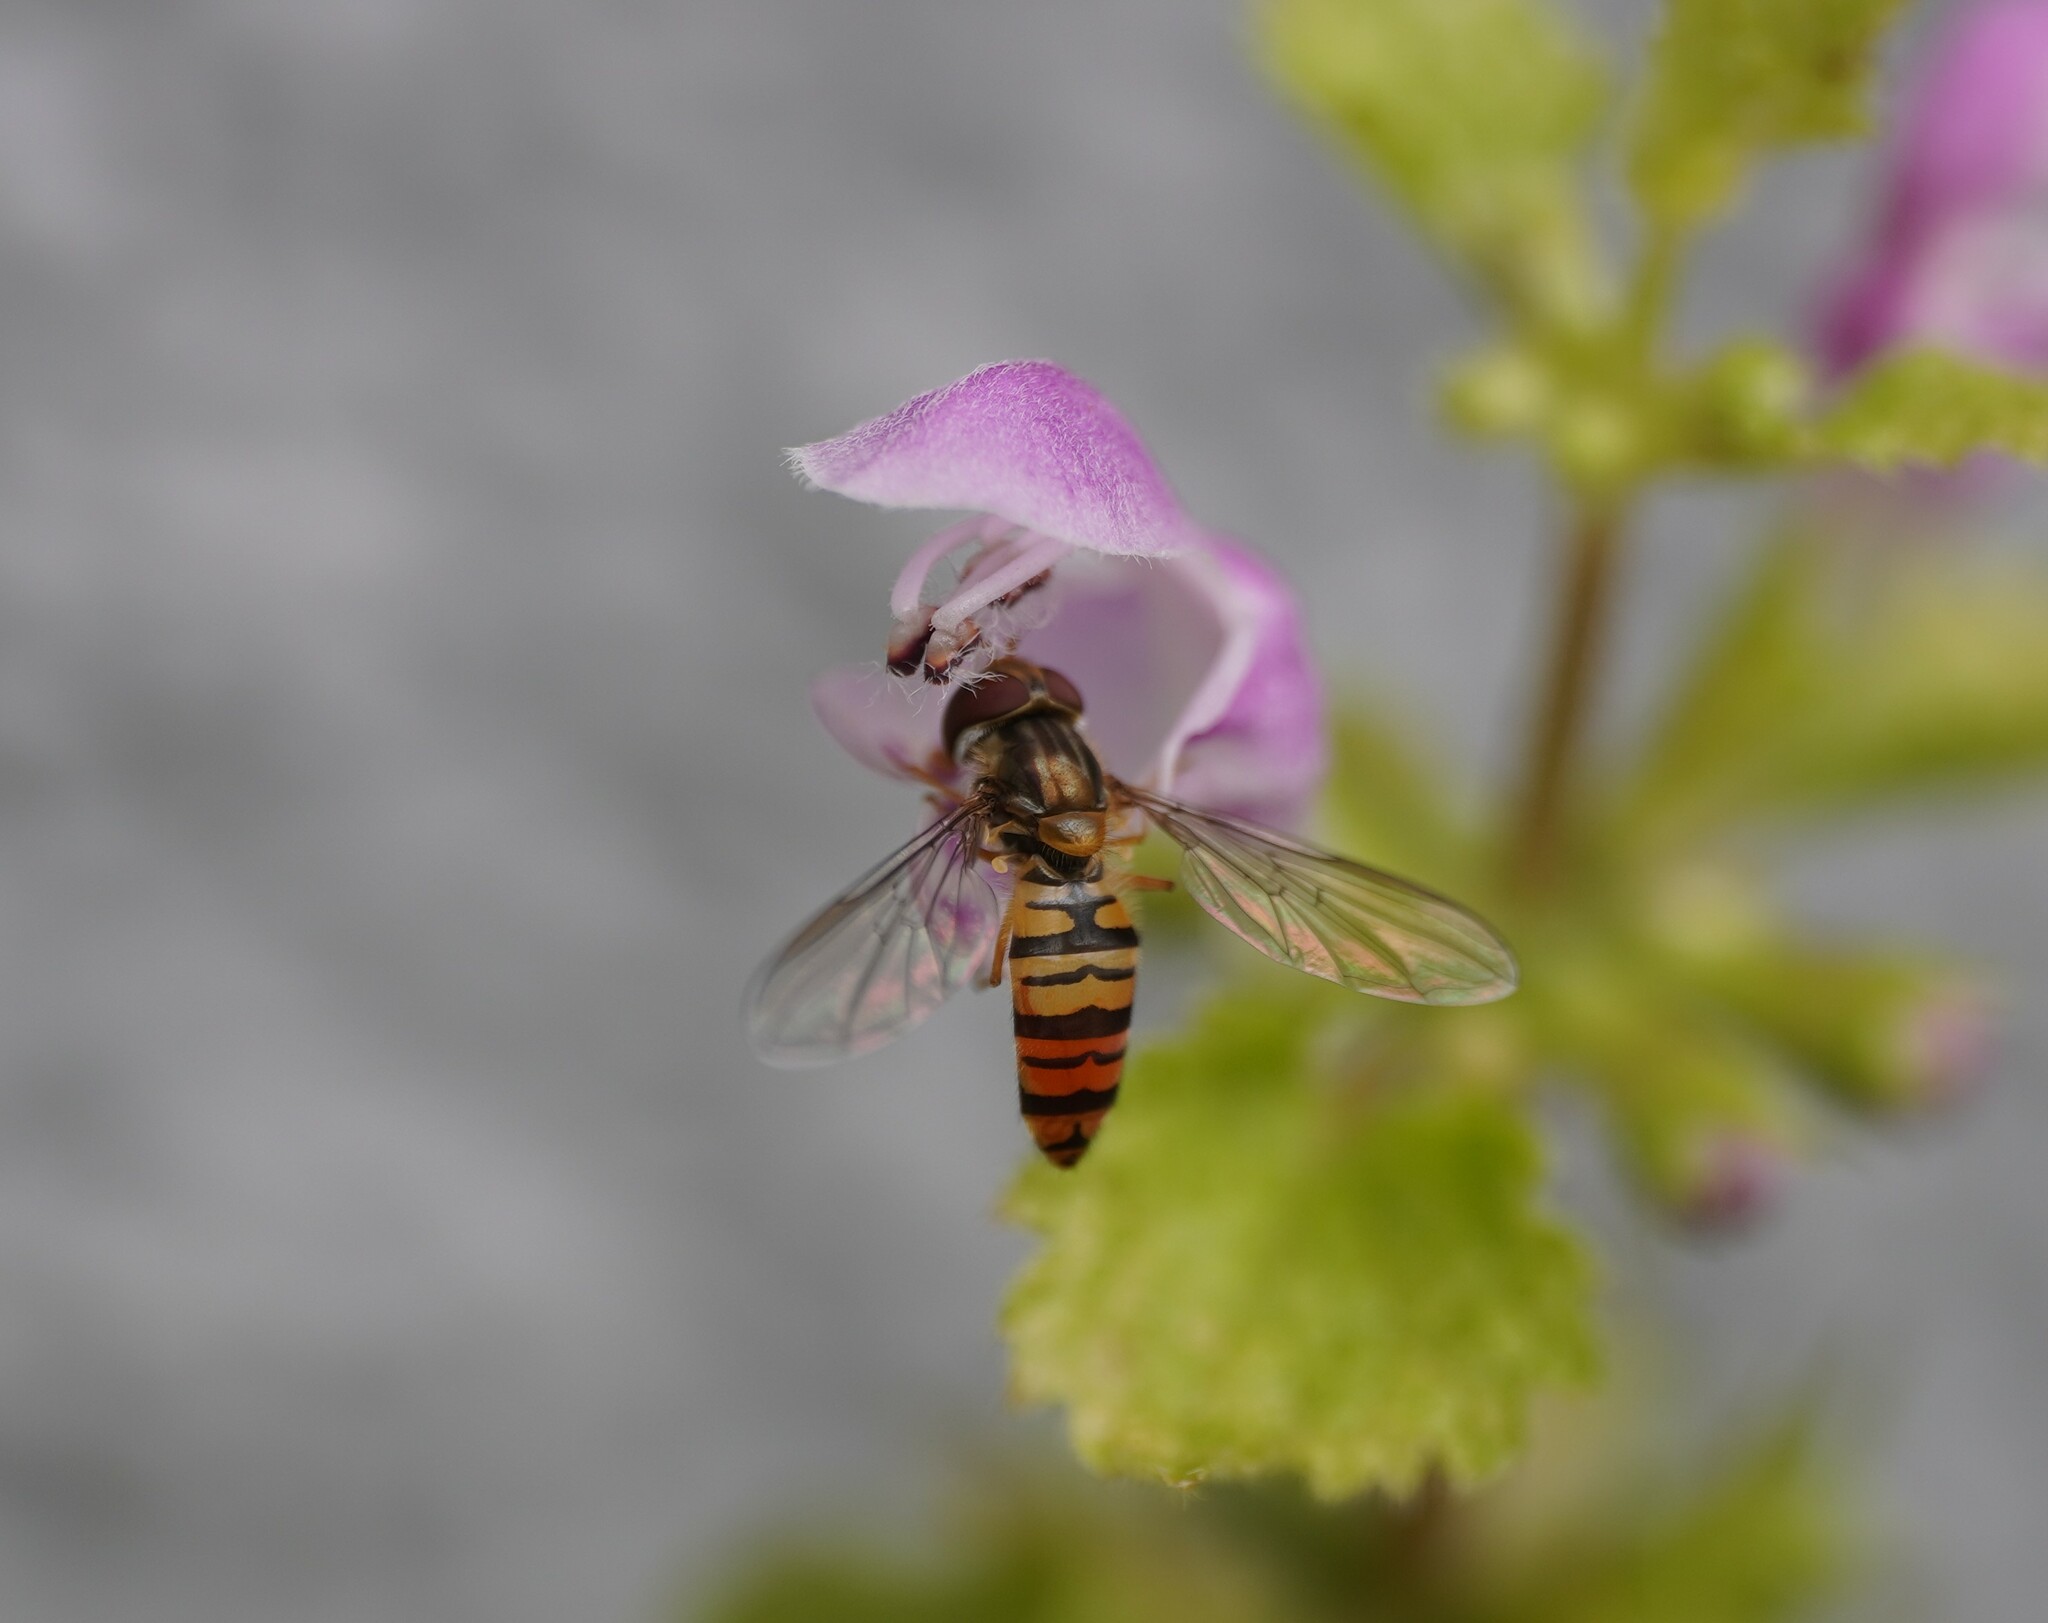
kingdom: Animalia
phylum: Arthropoda
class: Insecta
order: Diptera
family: Syrphidae
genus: Episyrphus
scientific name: Episyrphus balteatus
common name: Marmalade hoverfly
